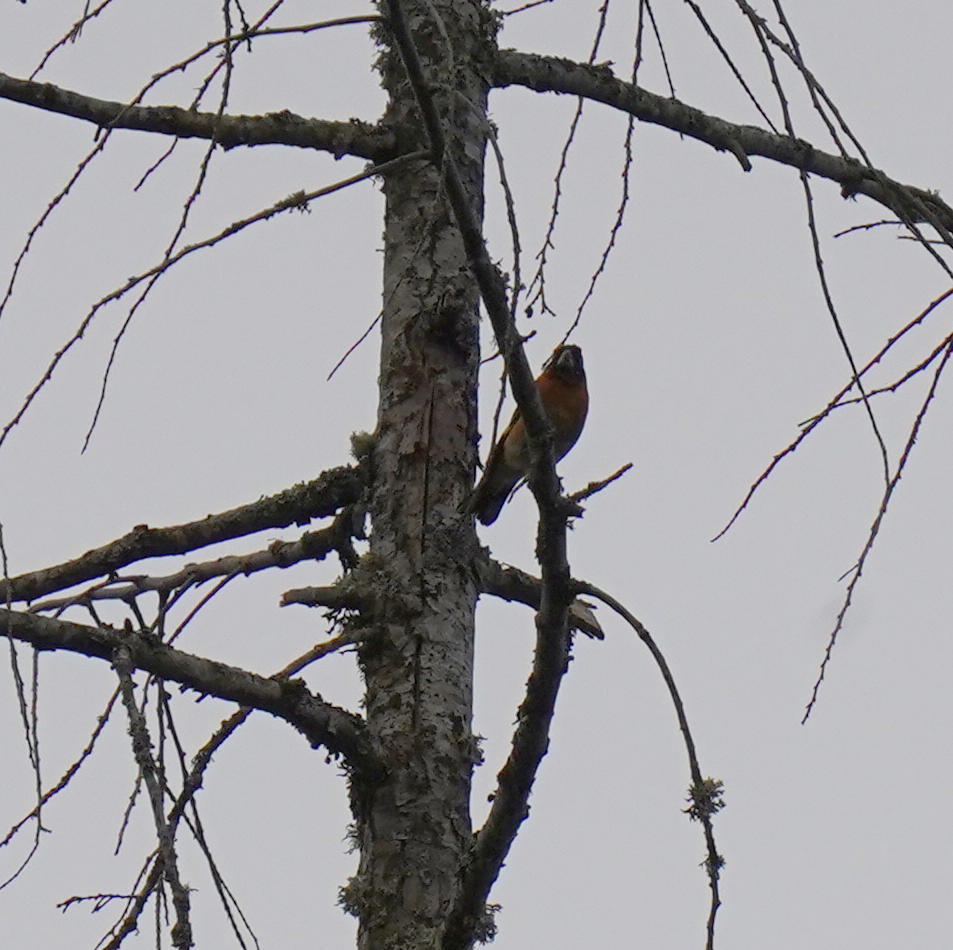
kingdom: Animalia
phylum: Chordata
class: Aves
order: Passeriformes
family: Cardinalidae
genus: Pheucticus
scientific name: Pheucticus melanocephalus
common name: Black-headed grosbeak
